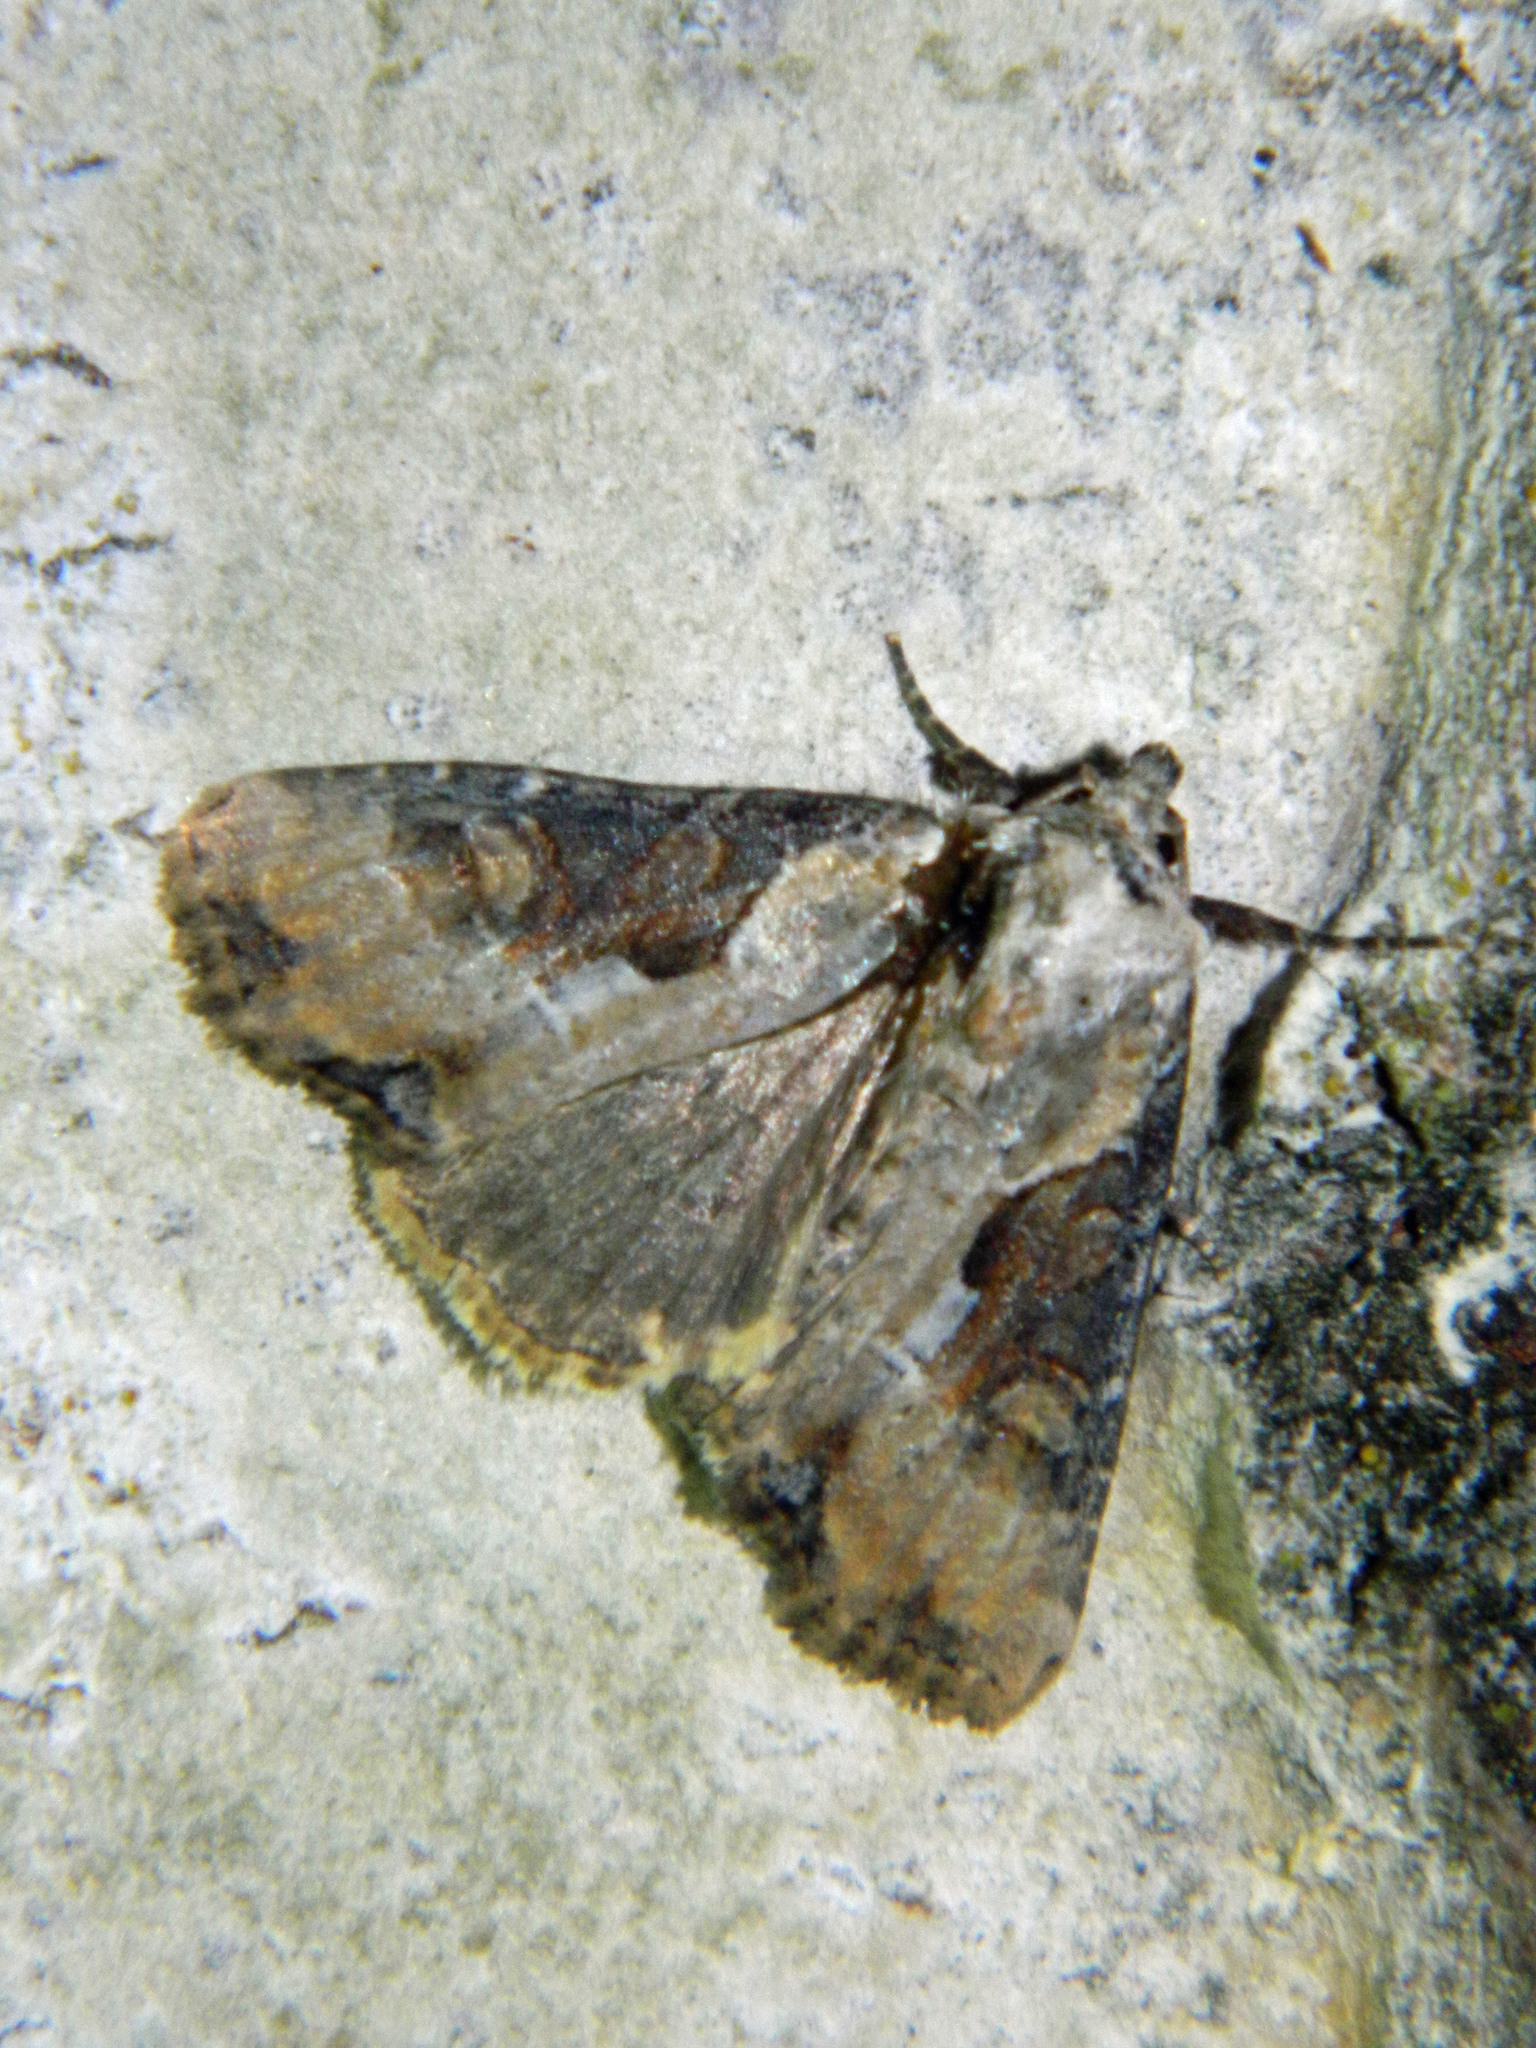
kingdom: Animalia
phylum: Arthropoda
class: Insecta
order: Lepidoptera
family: Noctuidae
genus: Lateroligia
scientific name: Lateroligia ophiogramma
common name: Double lobed
